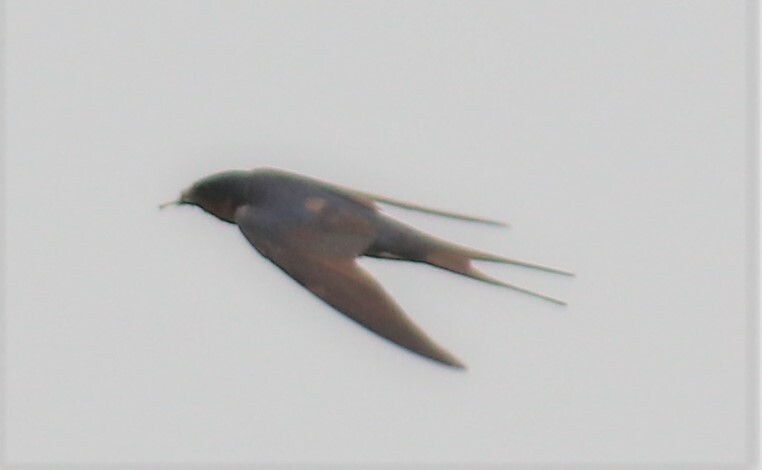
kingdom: Animalia
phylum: Chordata
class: Aves
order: Passeriformes
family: Hirundinidae
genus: Hirundo
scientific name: Hirundo rustica
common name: Barn swallow
